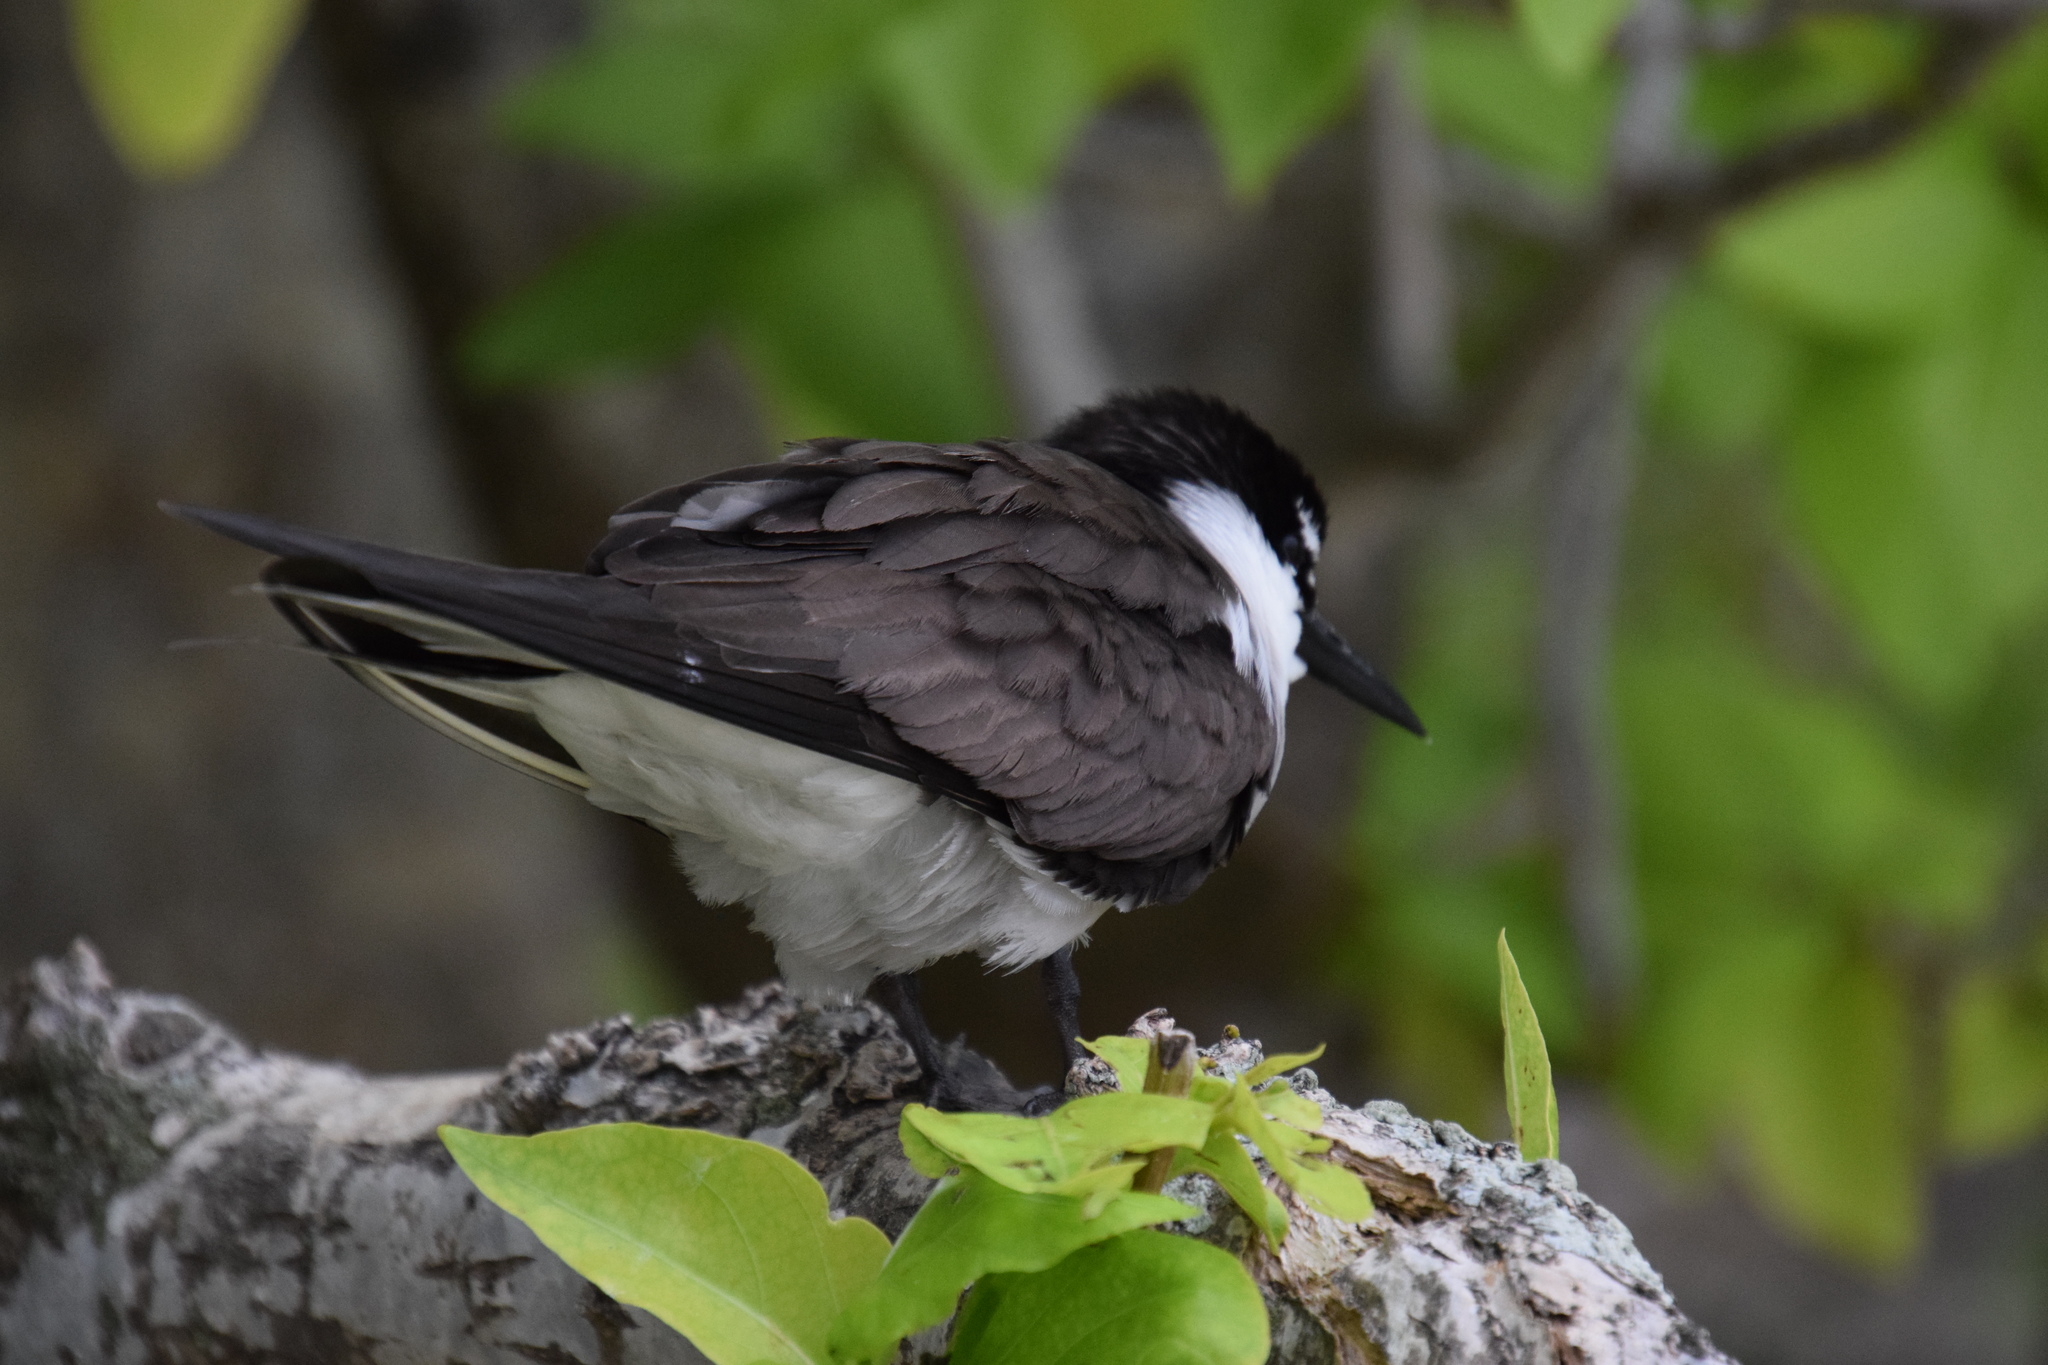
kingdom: Animalia
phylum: Chordata
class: Aves
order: Charadriiformes
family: Laridae
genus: Onychoprion
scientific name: Onychoprion anaethetus
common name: Bridled tern
